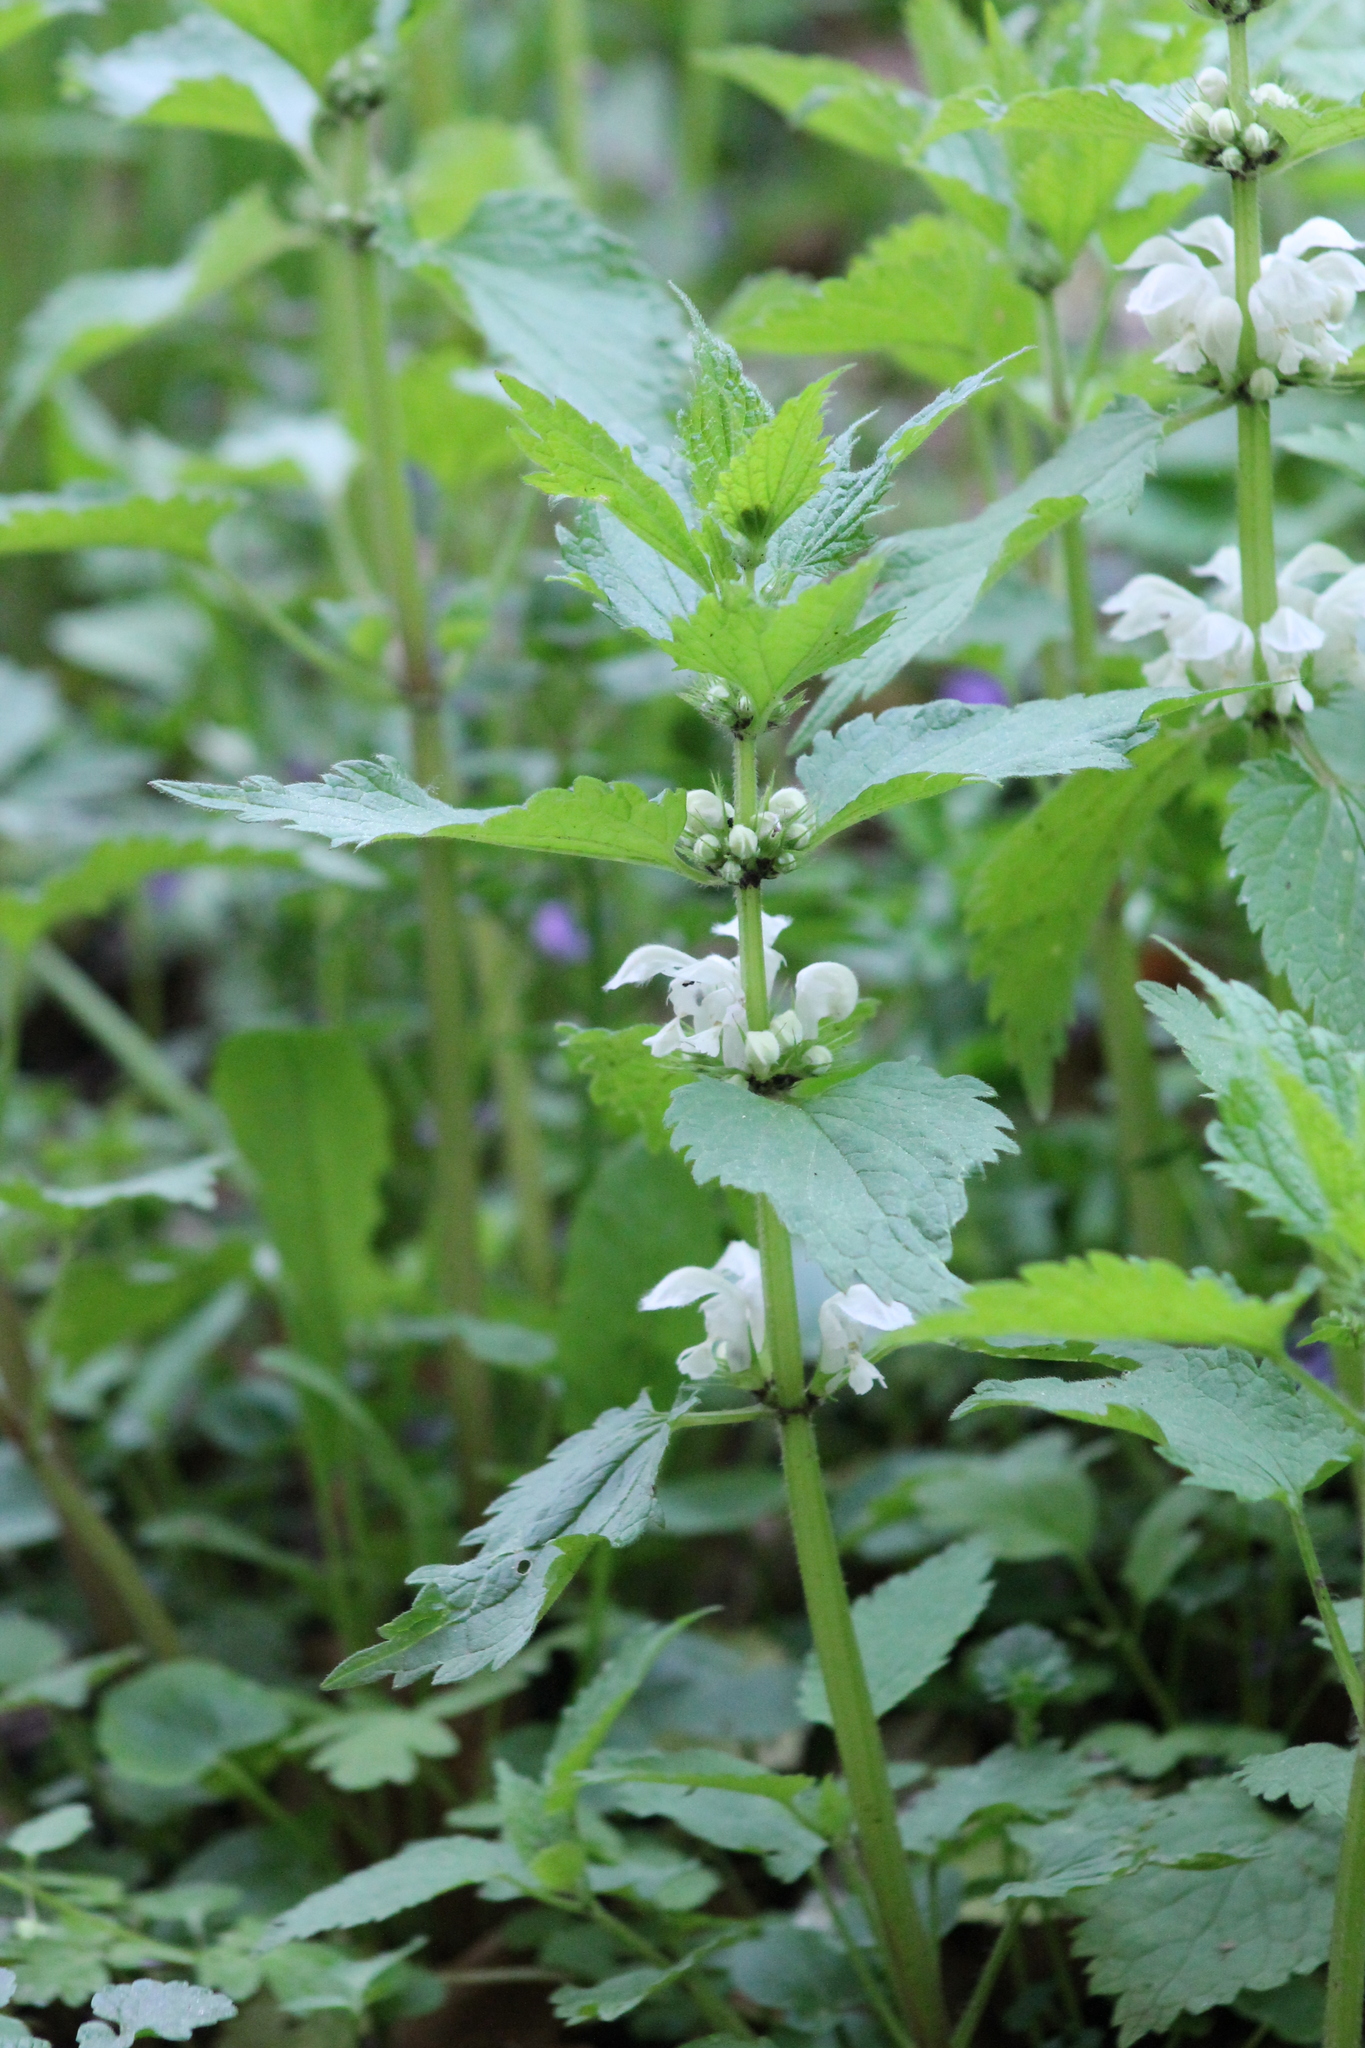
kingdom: Plantae
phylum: Tracheophyta
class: Magnoliopsida
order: Lamiales
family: Lamiaceae
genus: Lamium
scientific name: Lamium album
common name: White dead-nettle
